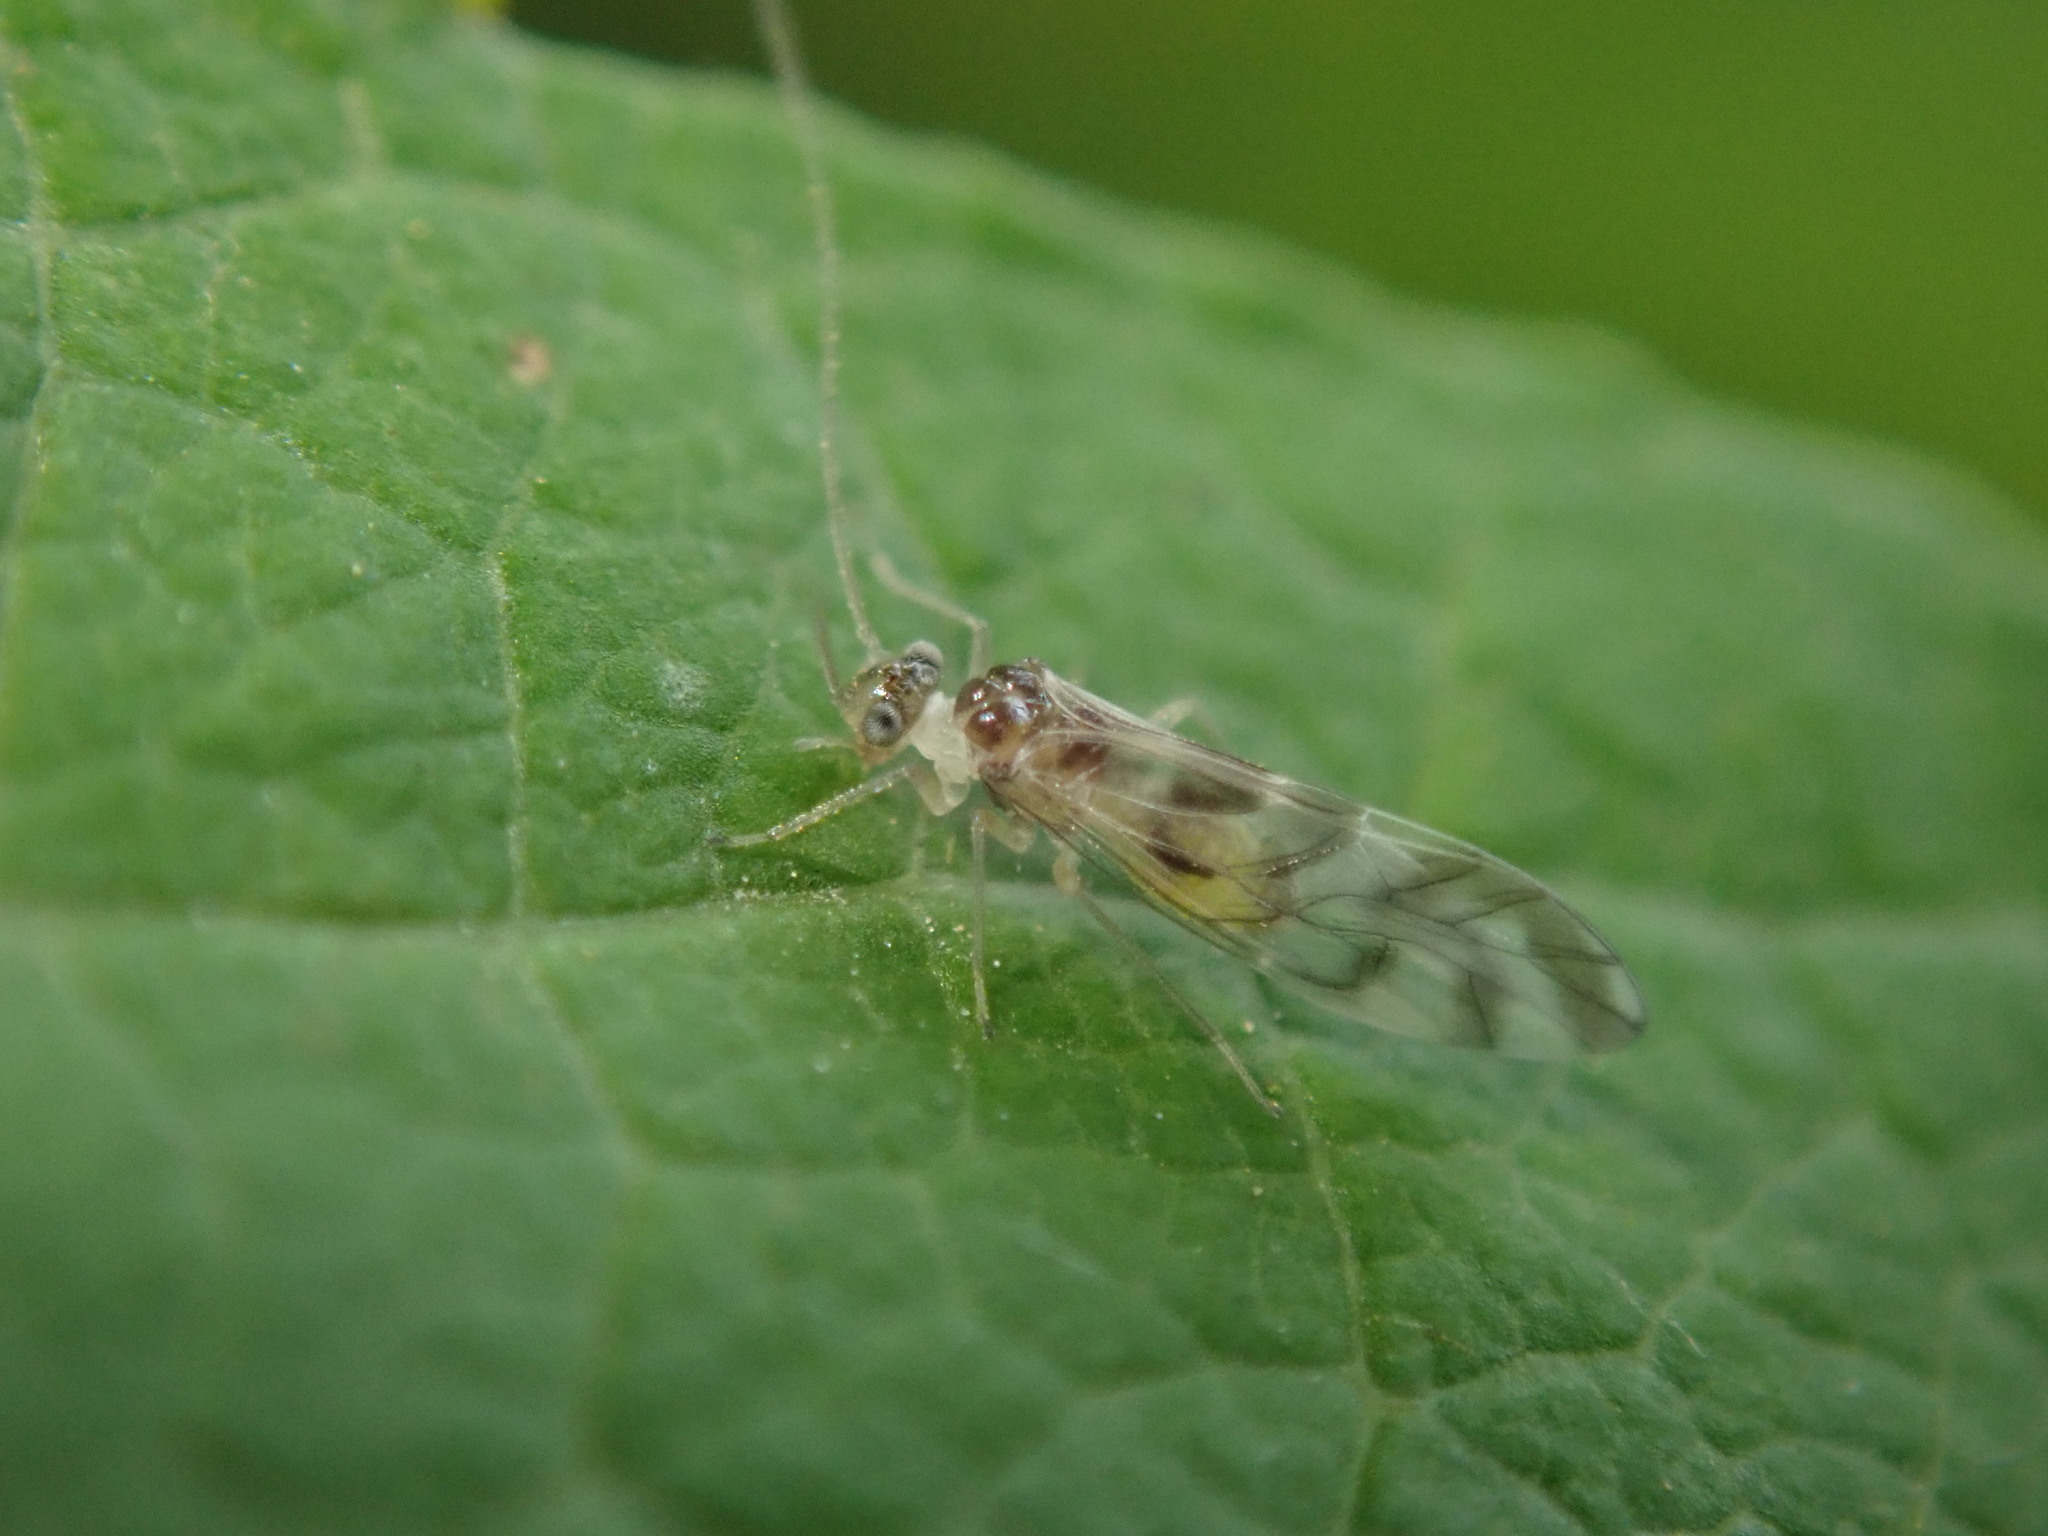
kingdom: Animalia
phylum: Arthropoda
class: Insecta
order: Psocodea
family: Stenopsocidae
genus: Graphopsocus
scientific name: Graphopsocus cruciatus
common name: Lizard bark louse
